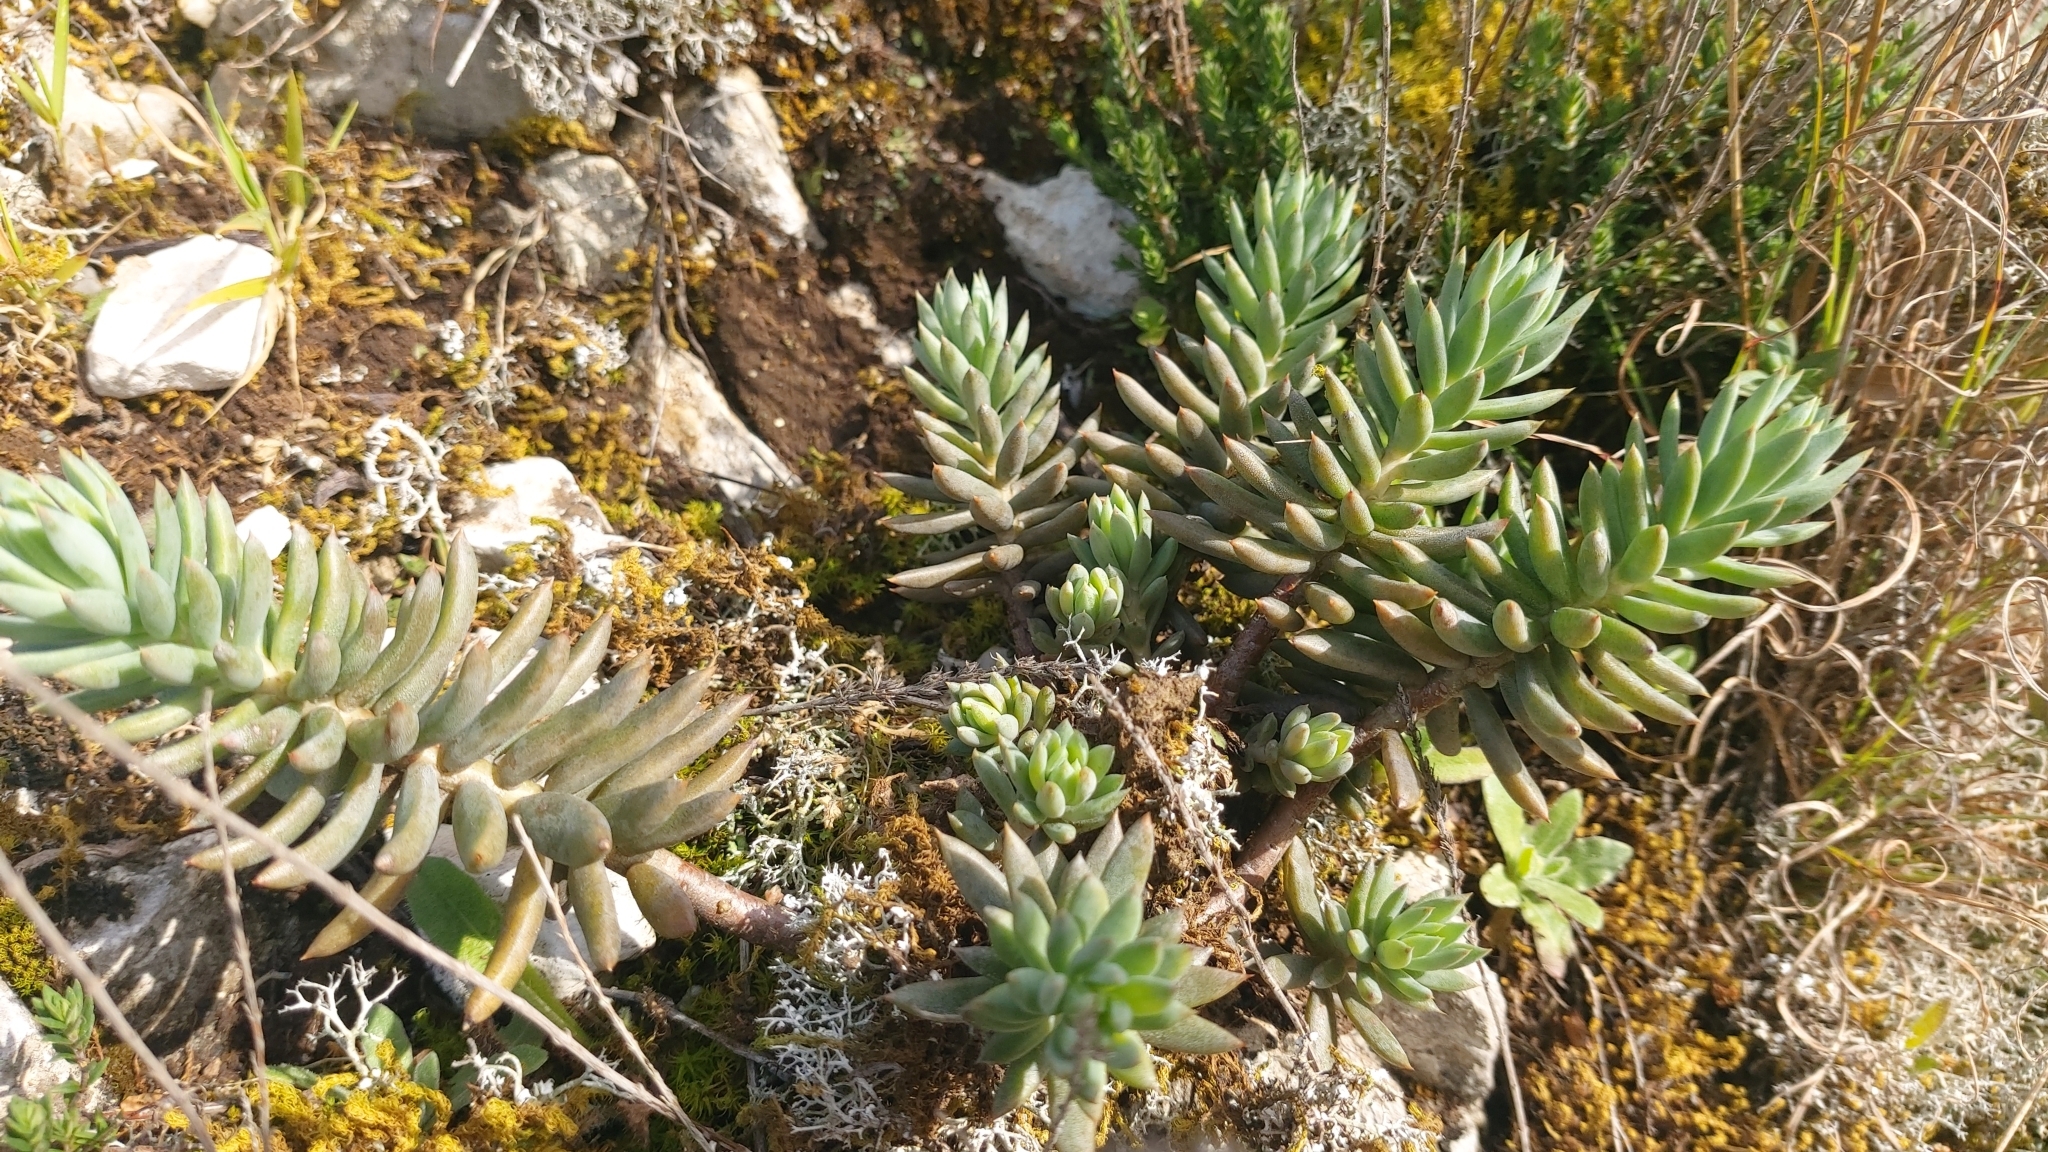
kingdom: Plantae
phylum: Tracheophyta
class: Magnoliopsida
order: Saxifragales
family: Crassulaceae
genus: Petrosedum
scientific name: Petrosedum sediforme
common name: Pale stonecrop
